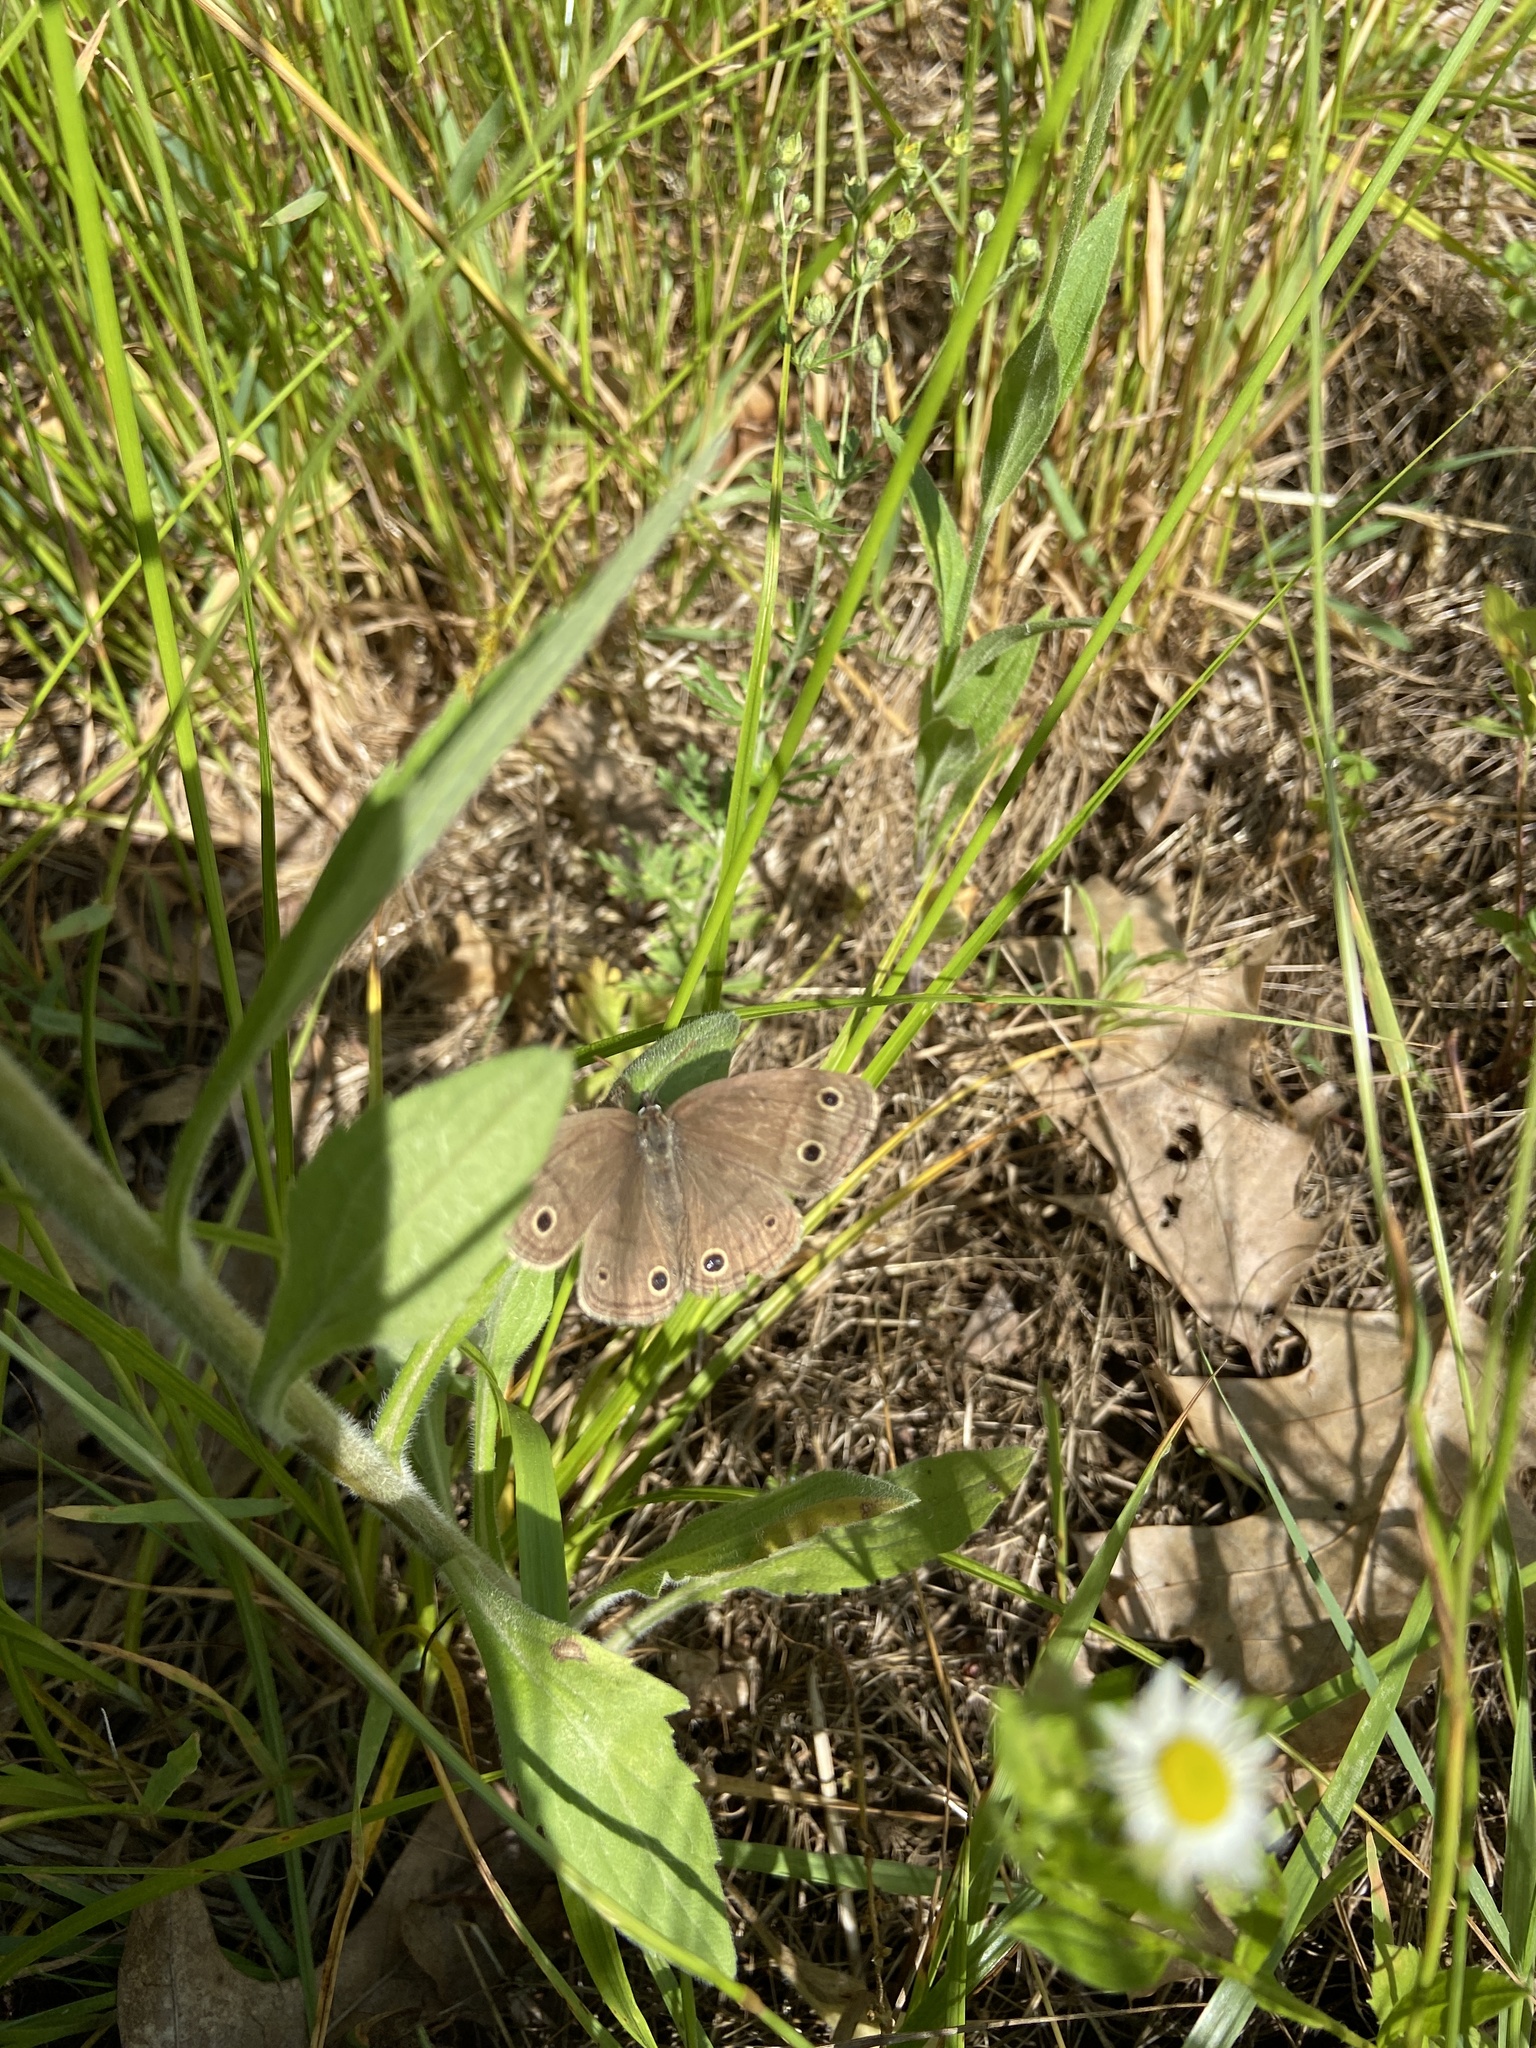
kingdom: Animalia
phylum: Arthropoda
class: Insecta
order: Lepidoptera
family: Nymphalidae
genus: Euptychia
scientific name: Euptychia cymela
